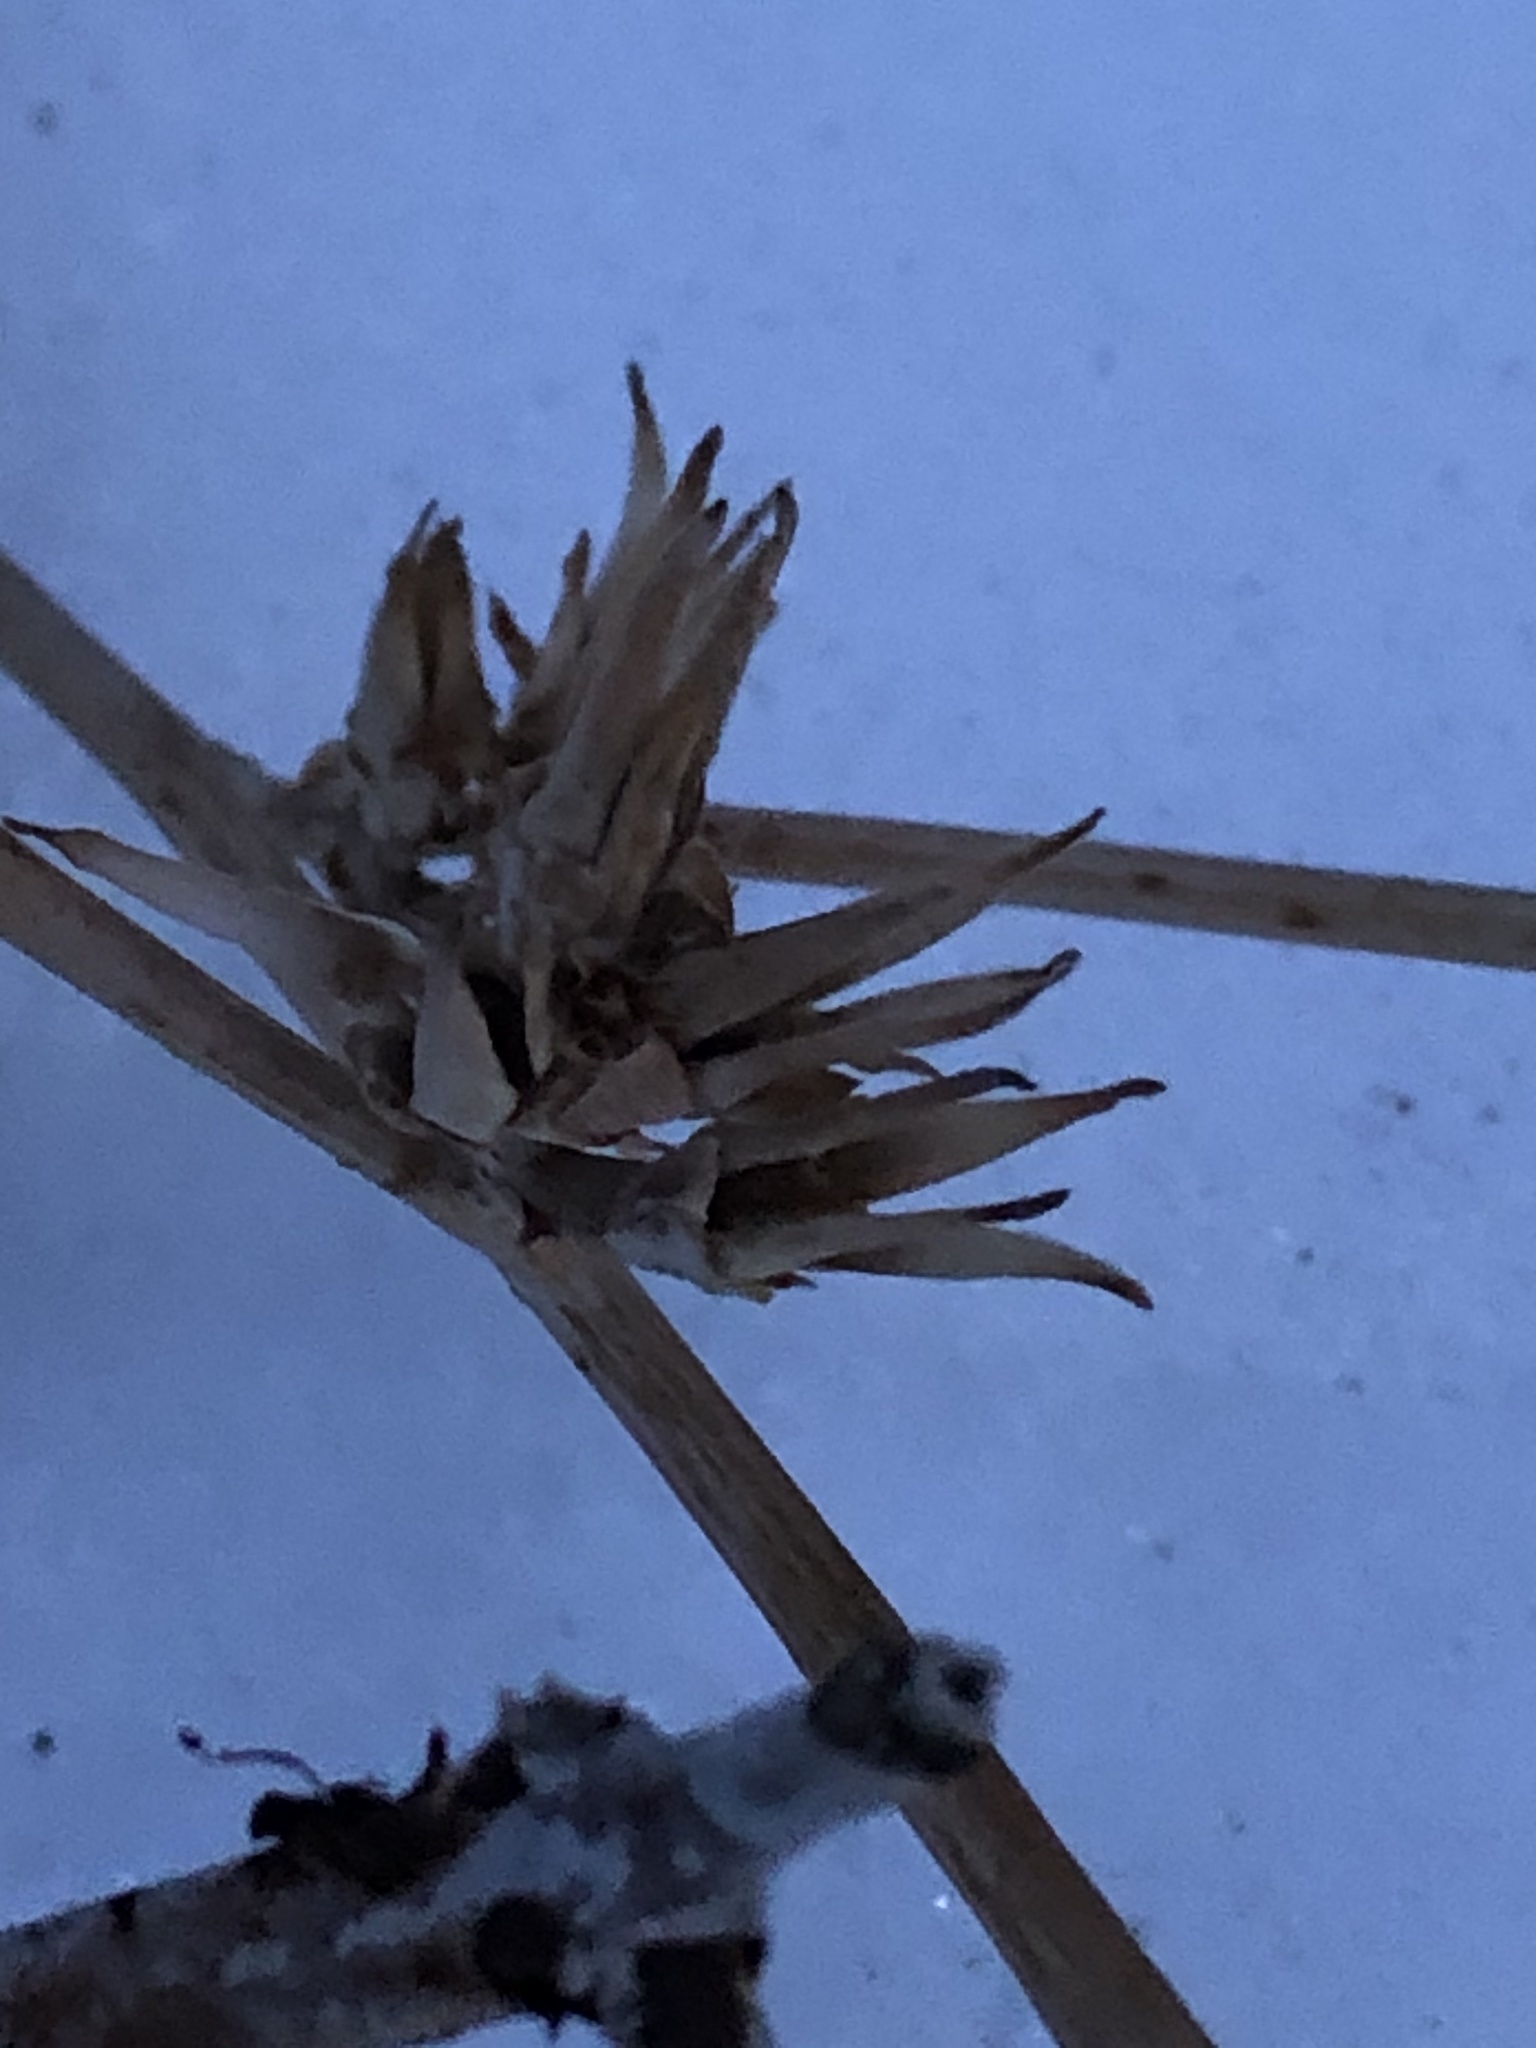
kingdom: Plantae
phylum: Tracheophyta
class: Magnoliopsida
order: Asterales
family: Asteraceae
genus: Cichorium
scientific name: Cichorium intybus
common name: Chicory
